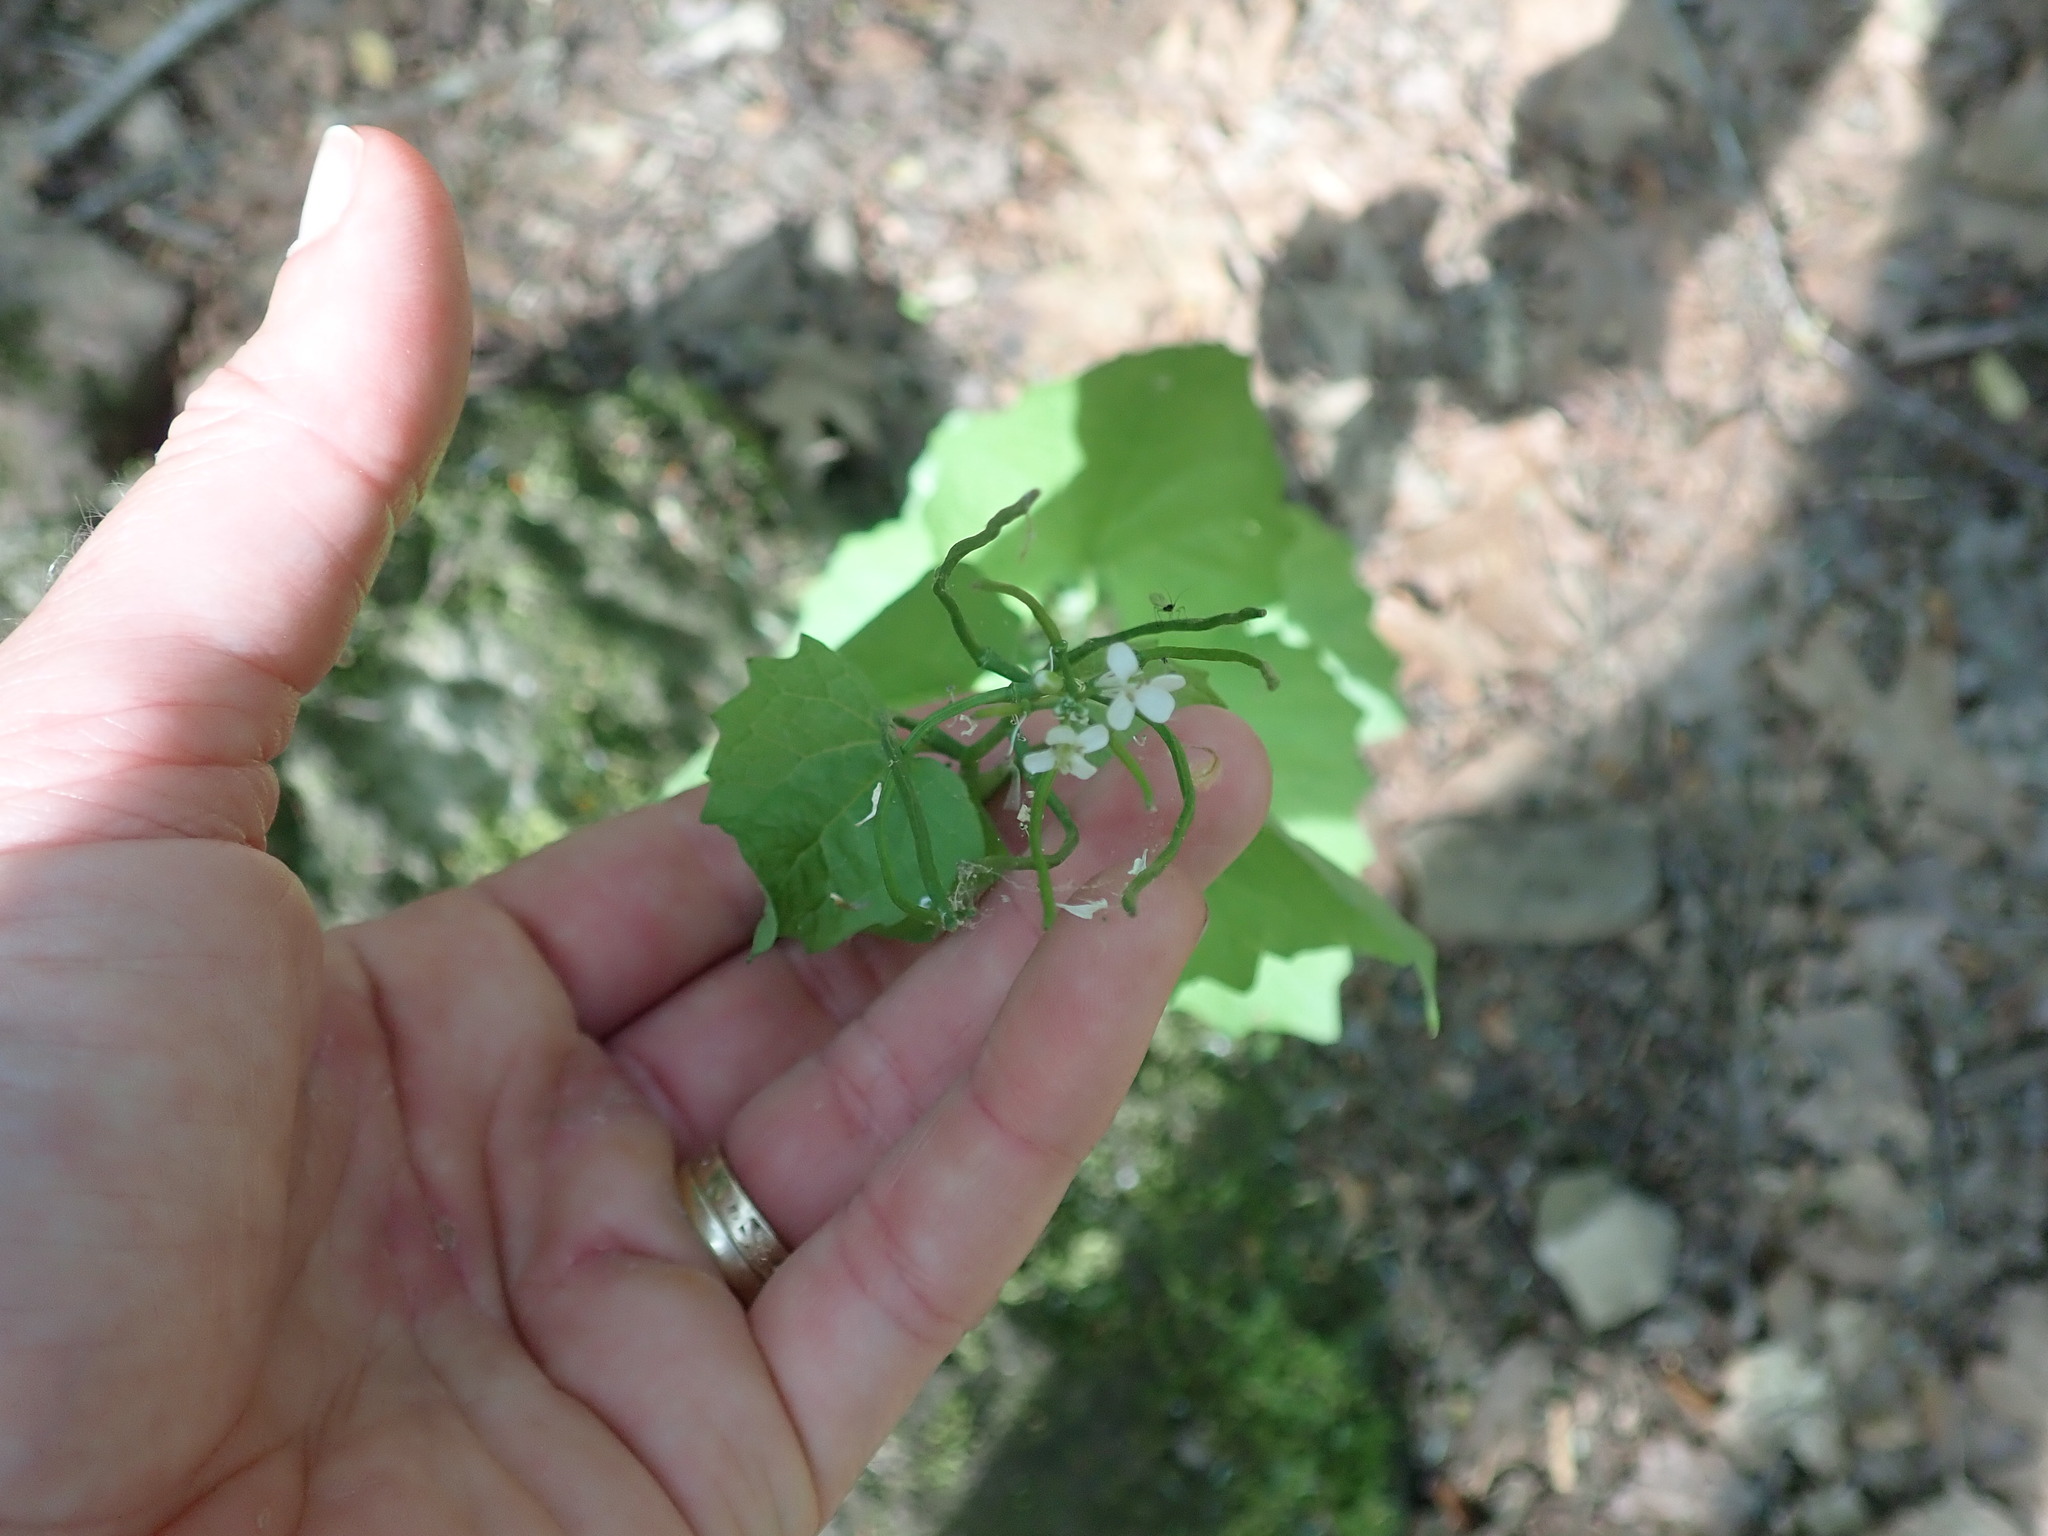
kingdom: Plantae
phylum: Tracheophyta
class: Magnoliopsida
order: Brassicales
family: Brassicaceae
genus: Alliaria
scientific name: Alliaria petiolata
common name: Garlic mustard
